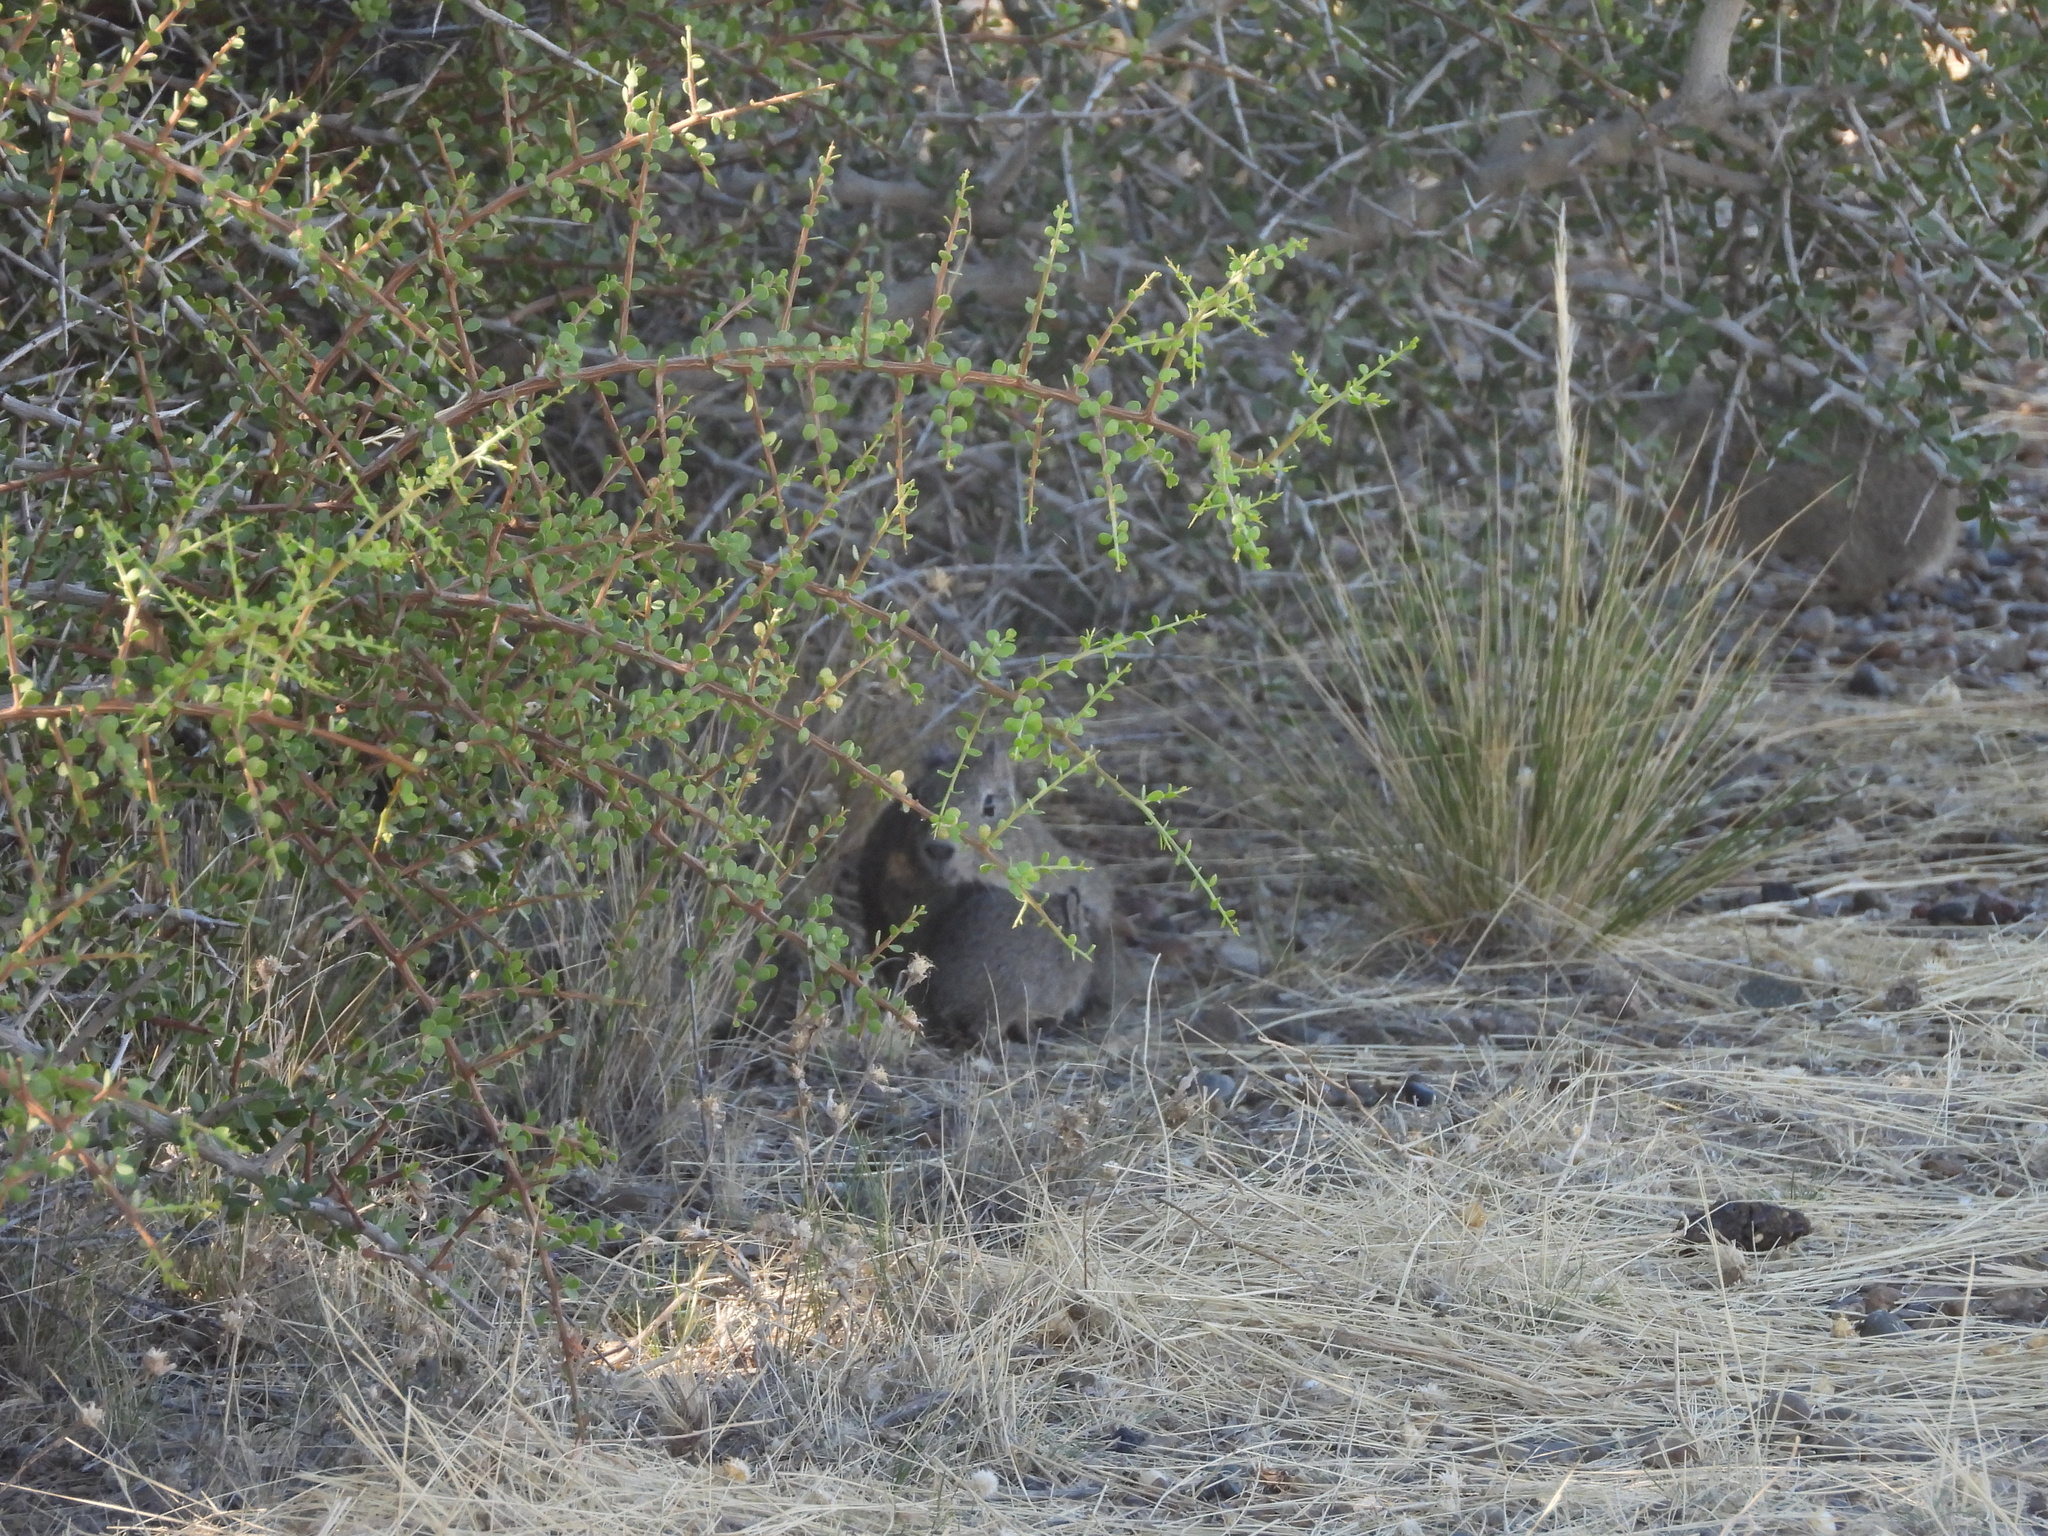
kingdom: Animalia
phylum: Chordata
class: Mammalia
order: Rodentia
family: Caviidae
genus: Microcavia
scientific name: Microcavia australis
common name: Southern mountain cavy
